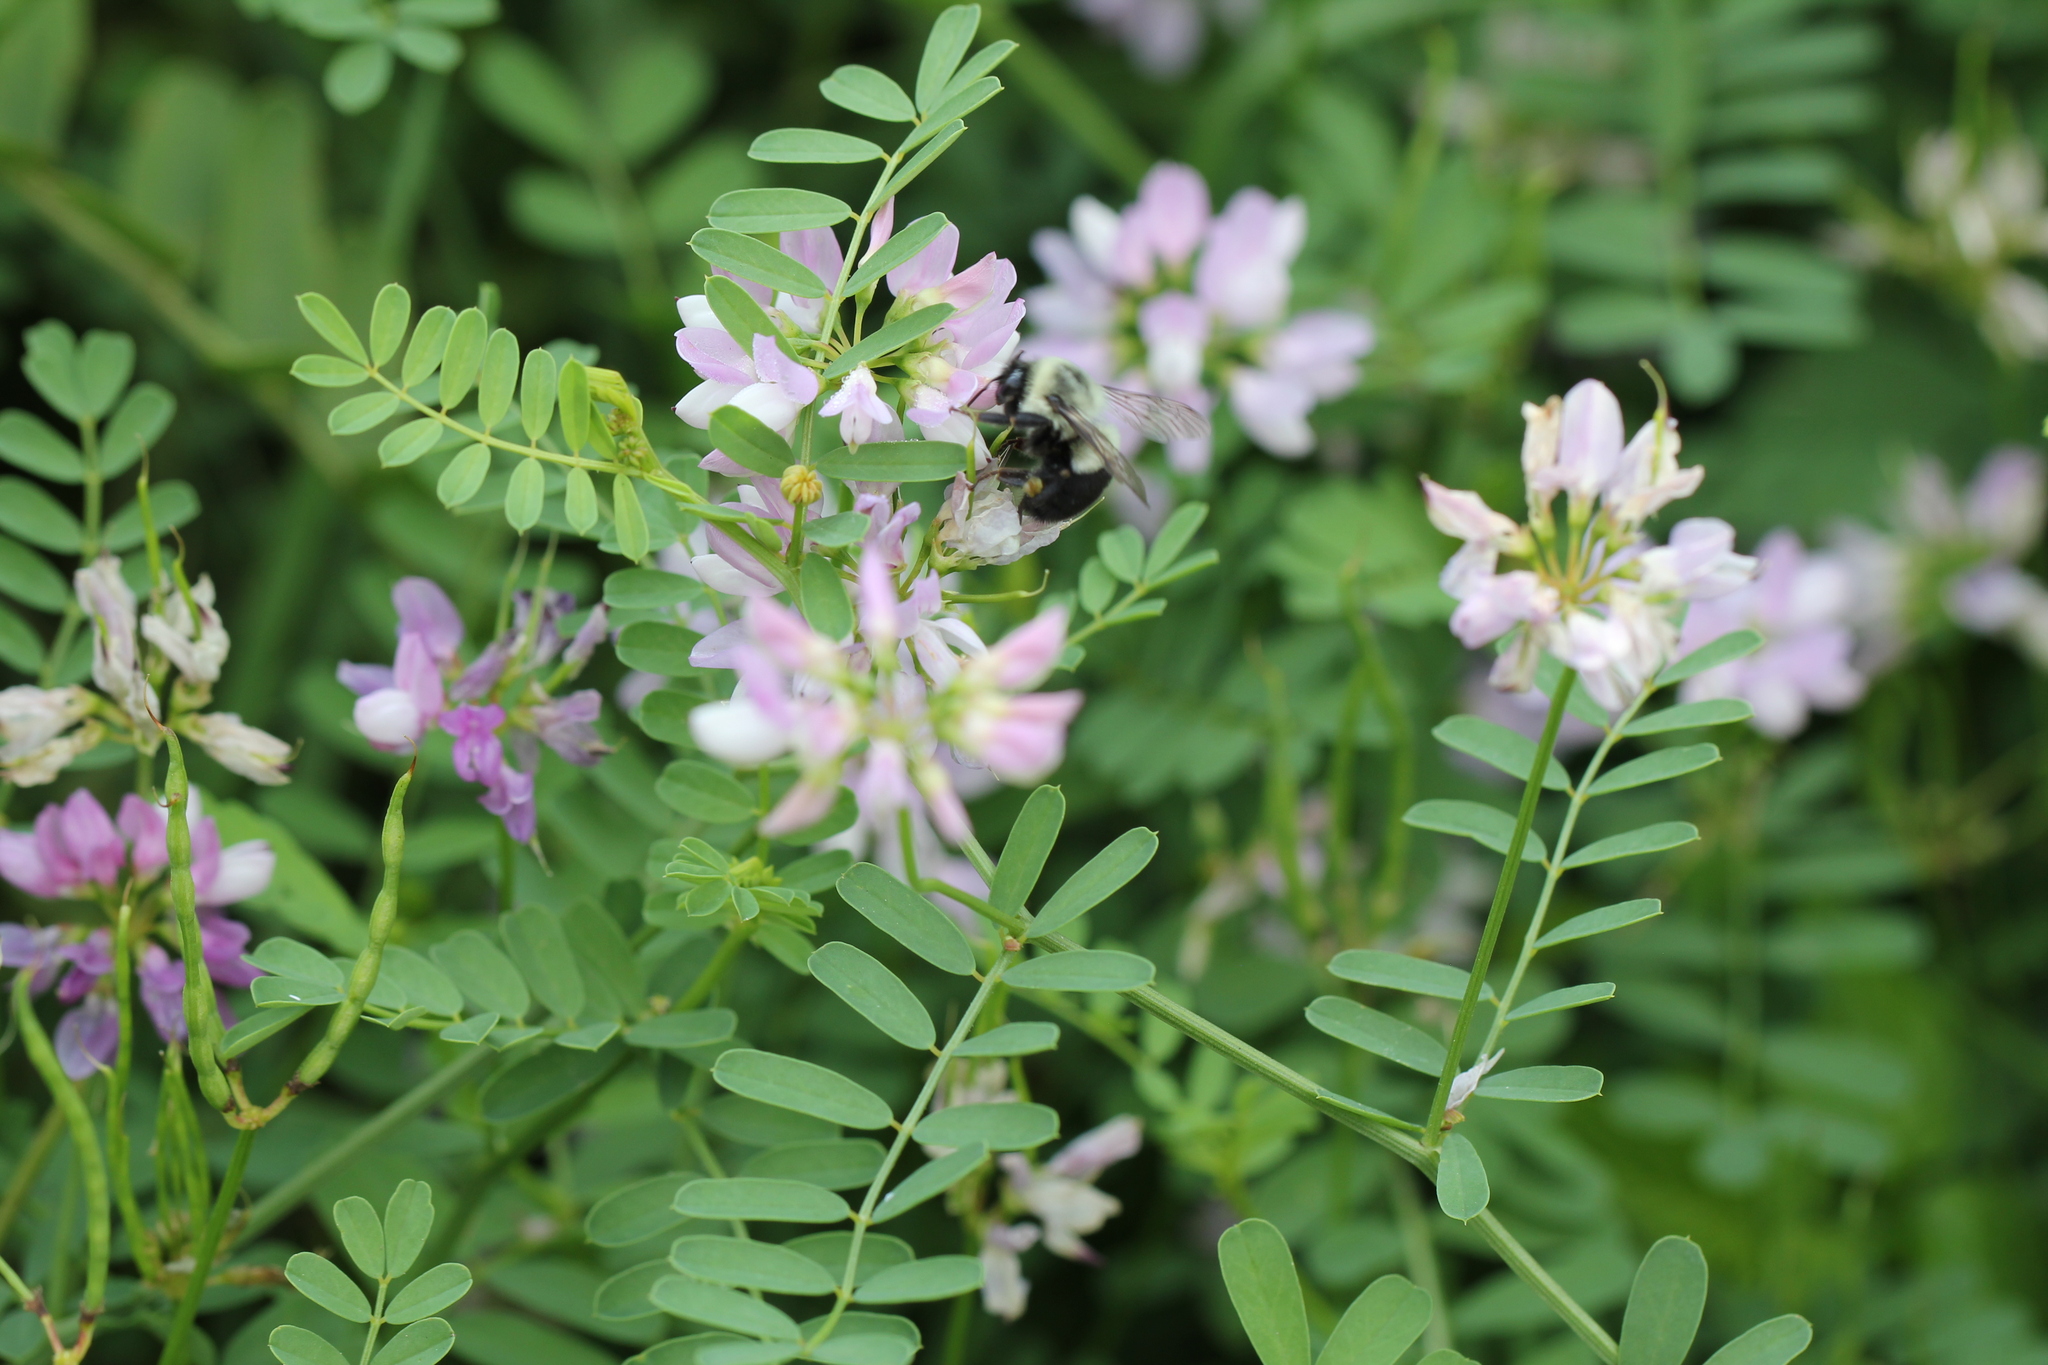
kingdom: Animalia
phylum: Arthropoda
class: Insecta
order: Hymenoptera
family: Apidae
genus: Bombus
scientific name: Bombus impatiens
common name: Common eastern bumble bee
